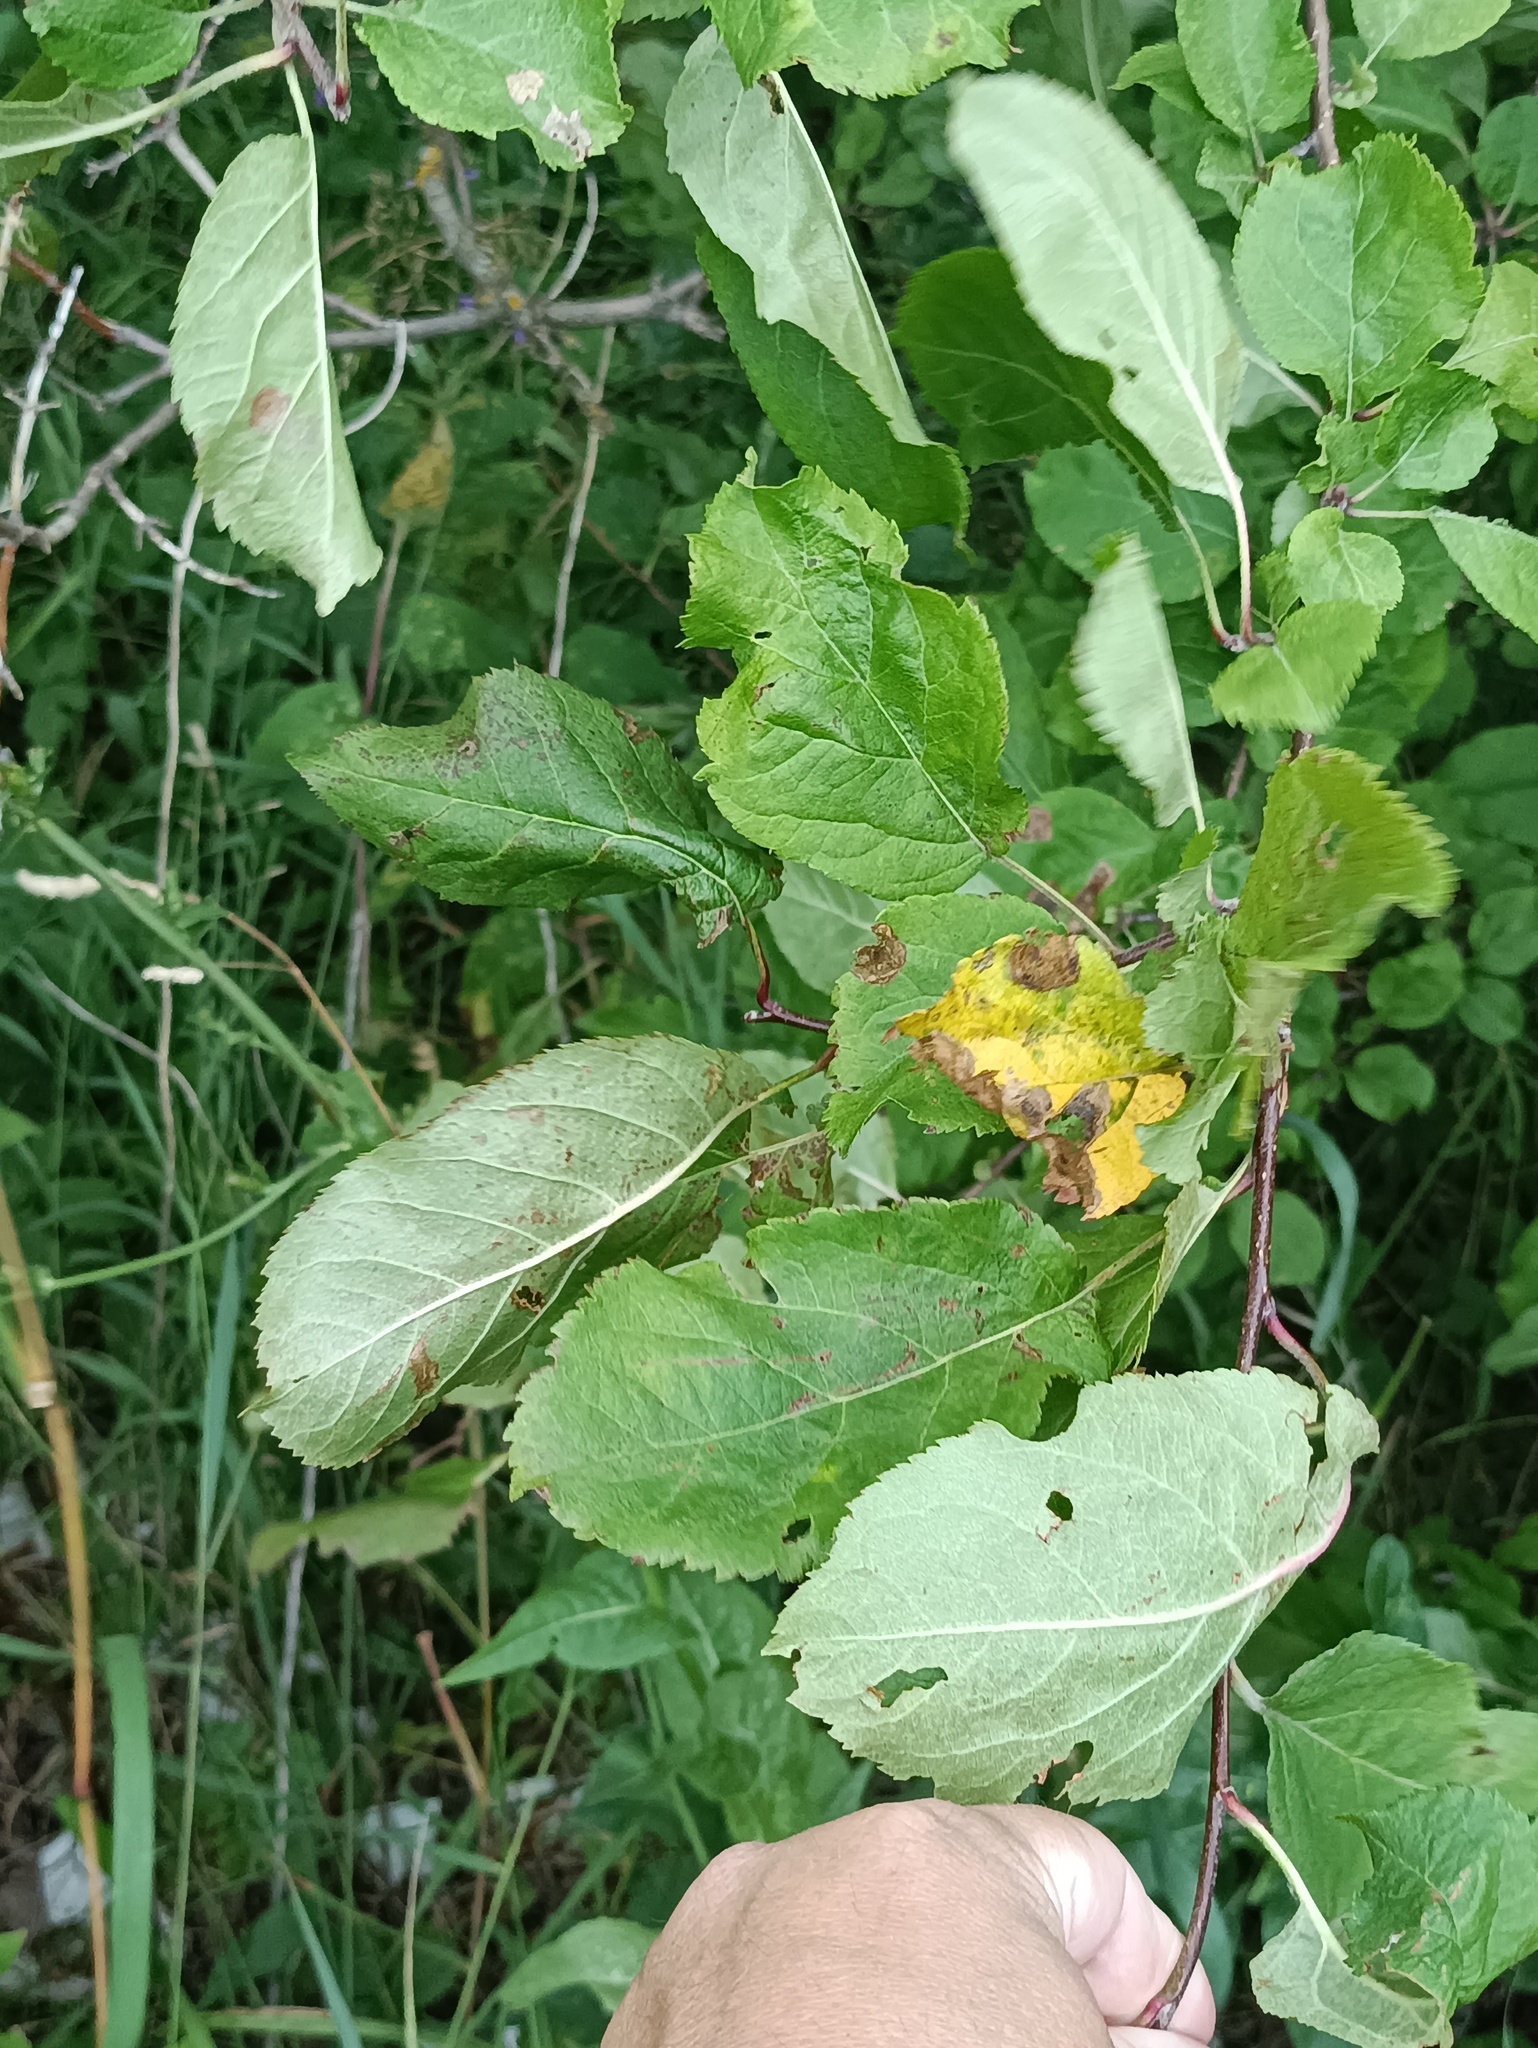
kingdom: Plantae
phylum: Tracheophyta
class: Magnoliopsida
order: Rosales
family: Rosaceae
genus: Malus
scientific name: Malus domestica
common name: Apple
